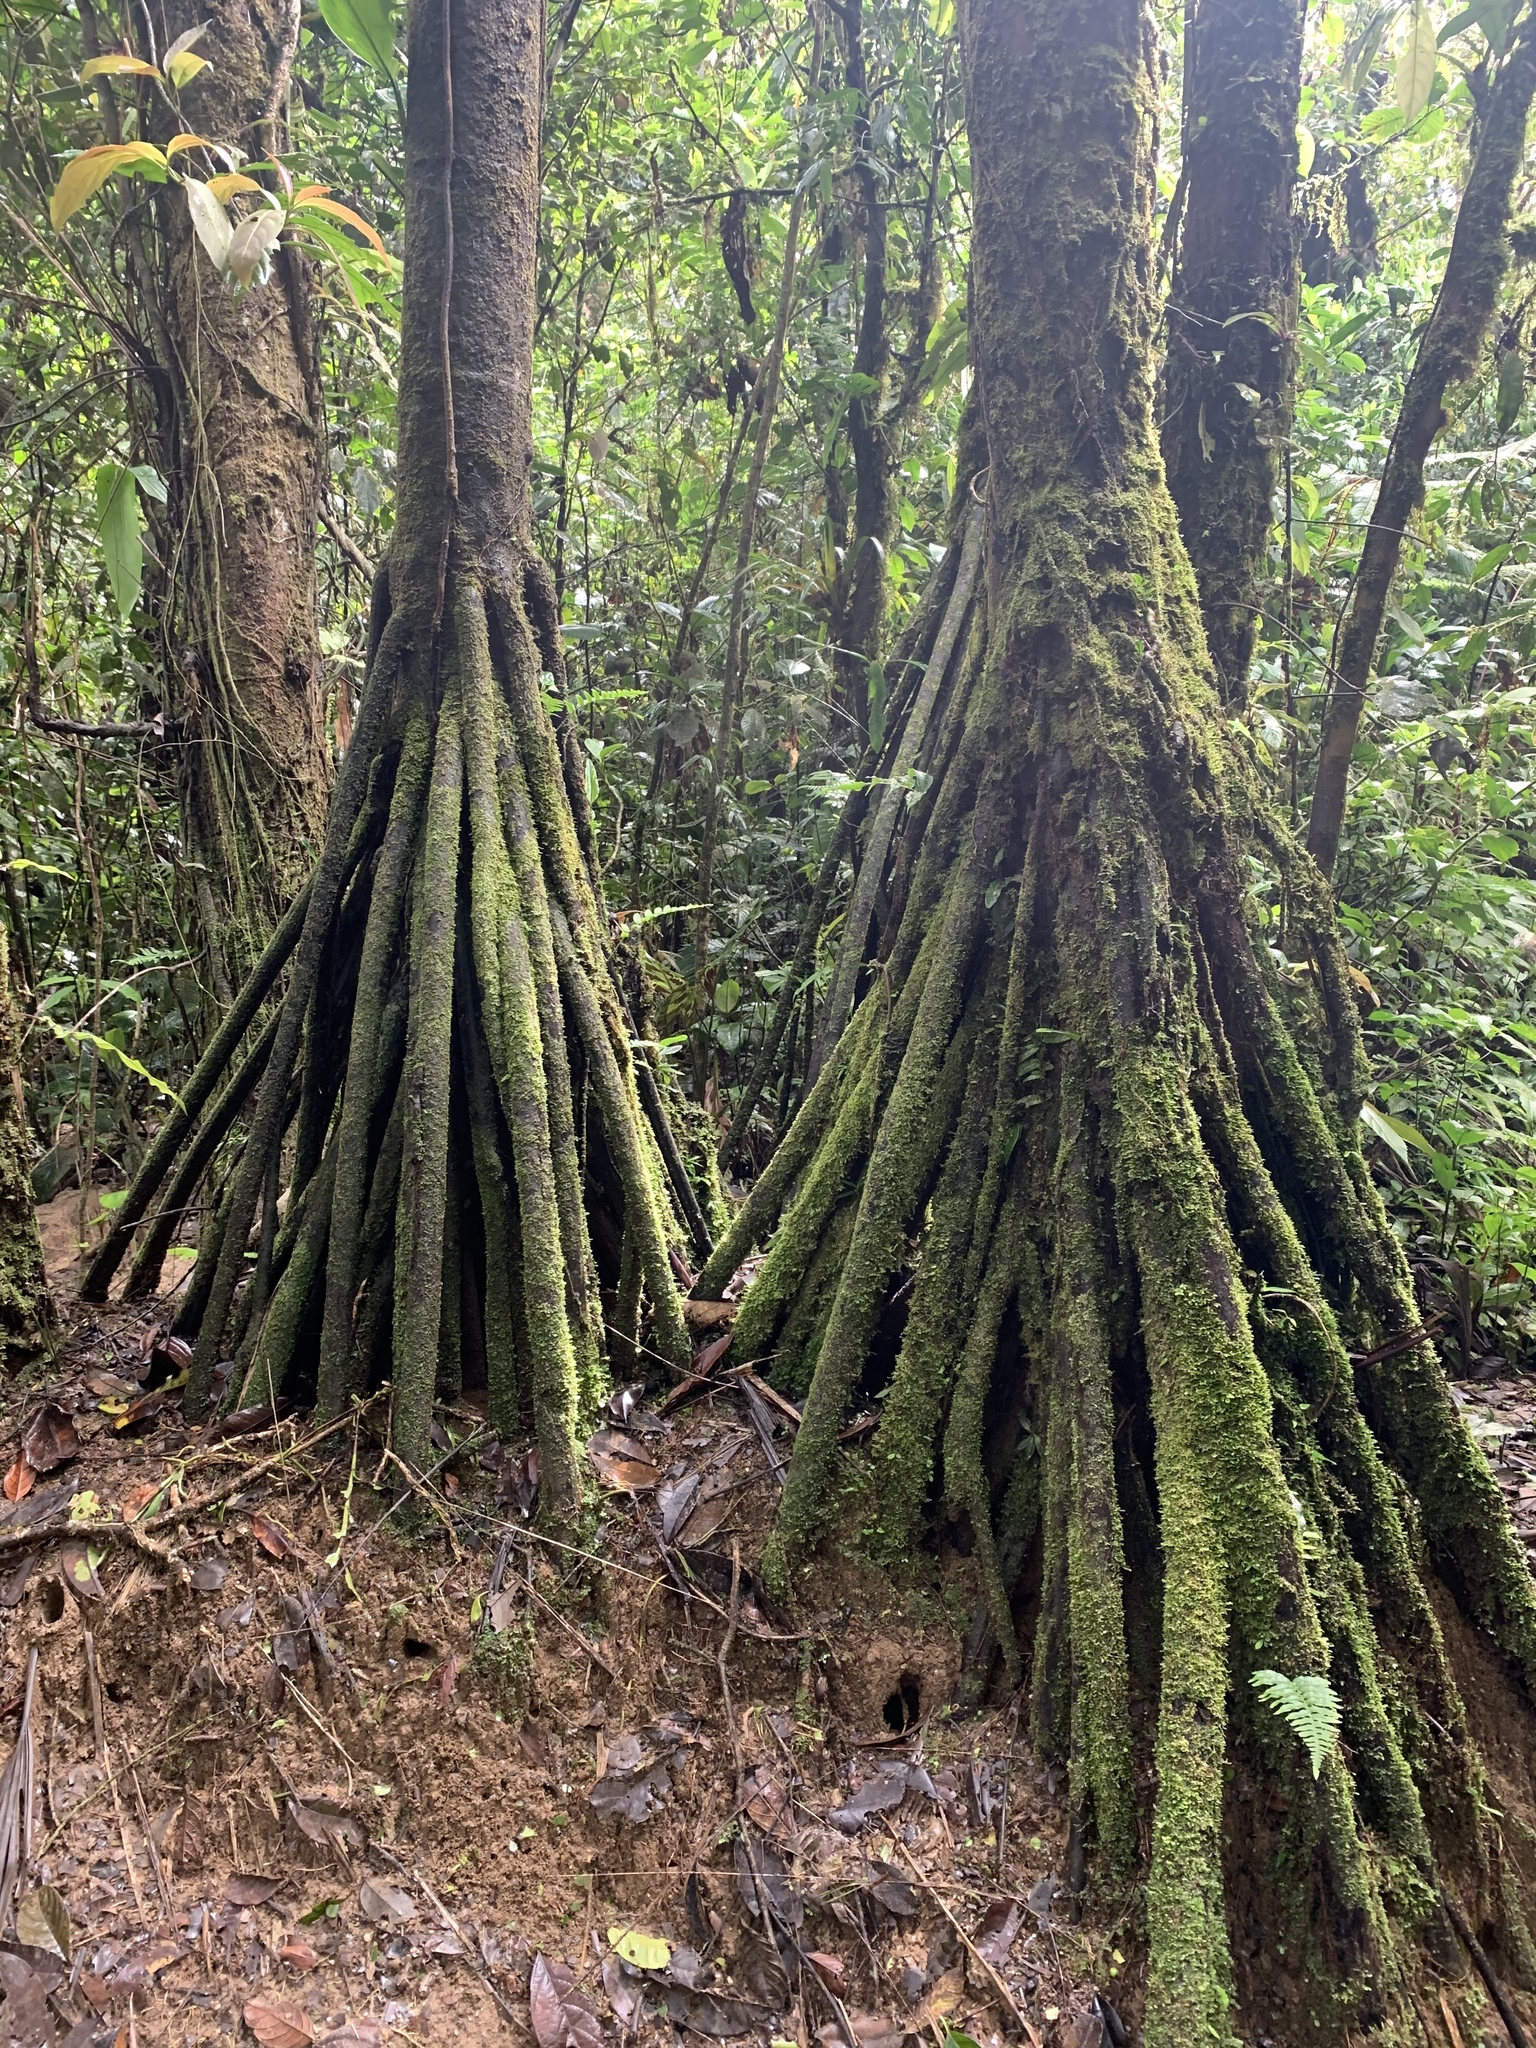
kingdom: Plantae
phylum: Tracheophyta
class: Liliopsida
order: Arecales
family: Arecaceae
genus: Iriartea
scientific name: Iriartea deltoidea
